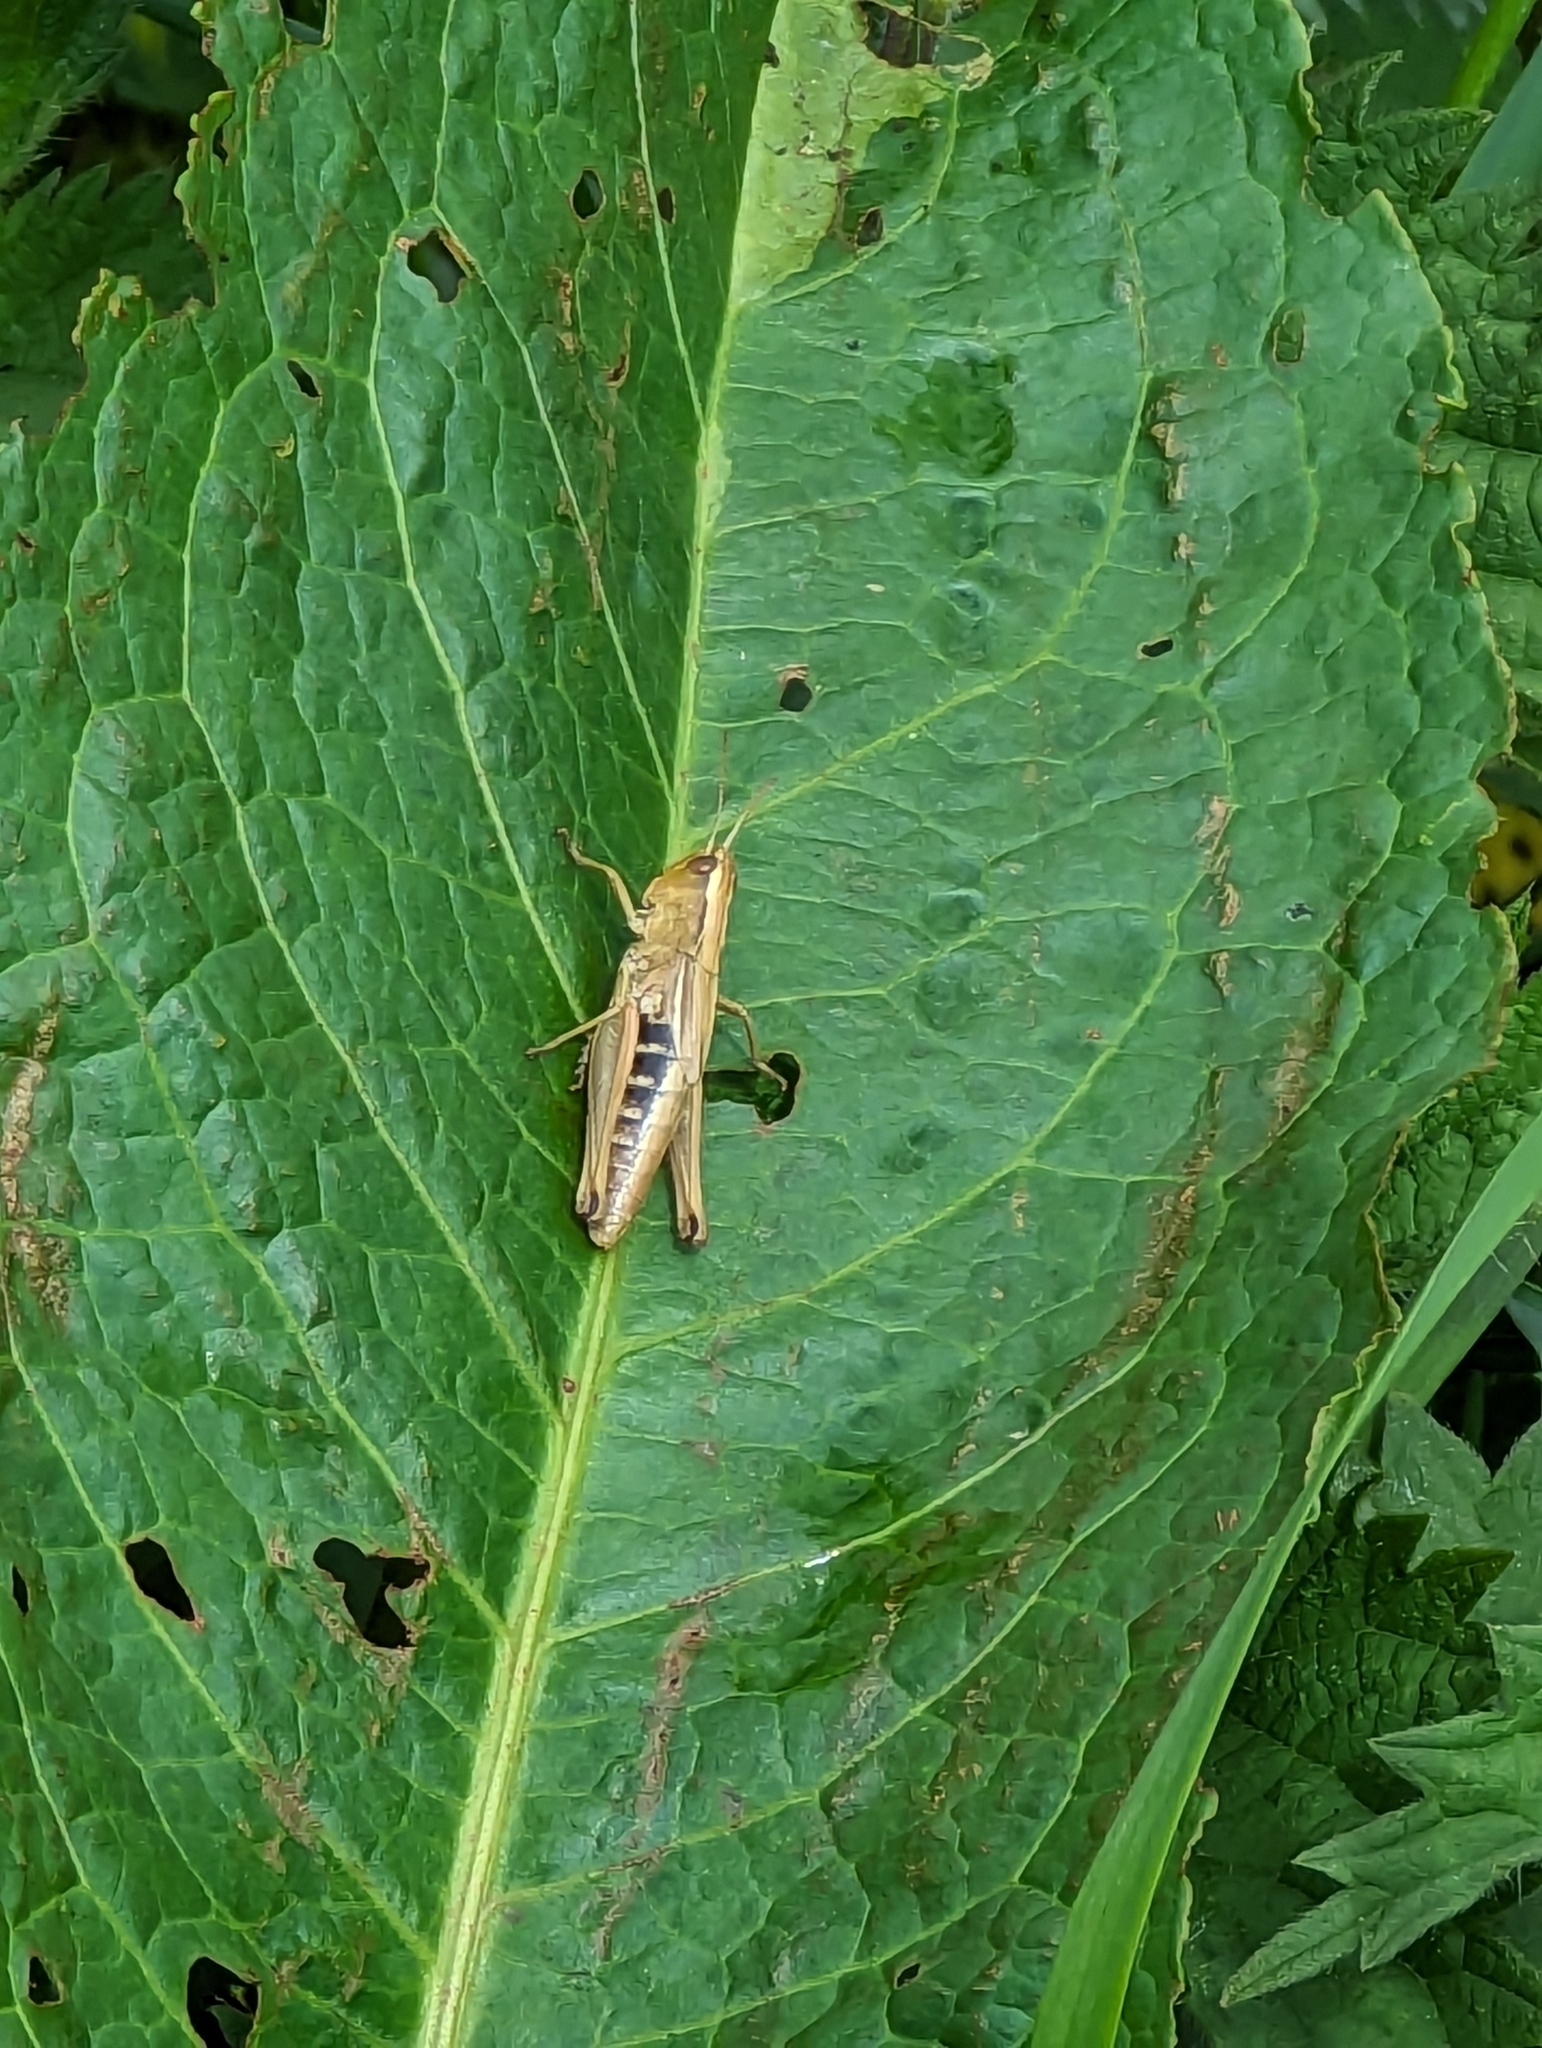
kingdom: Animalia
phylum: Arthropoda
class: Insecta
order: Orthoptera
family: Acrididae
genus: Pseudochorthippus
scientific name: Pseudochorthippus parallelus
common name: Meadow grasshopper
